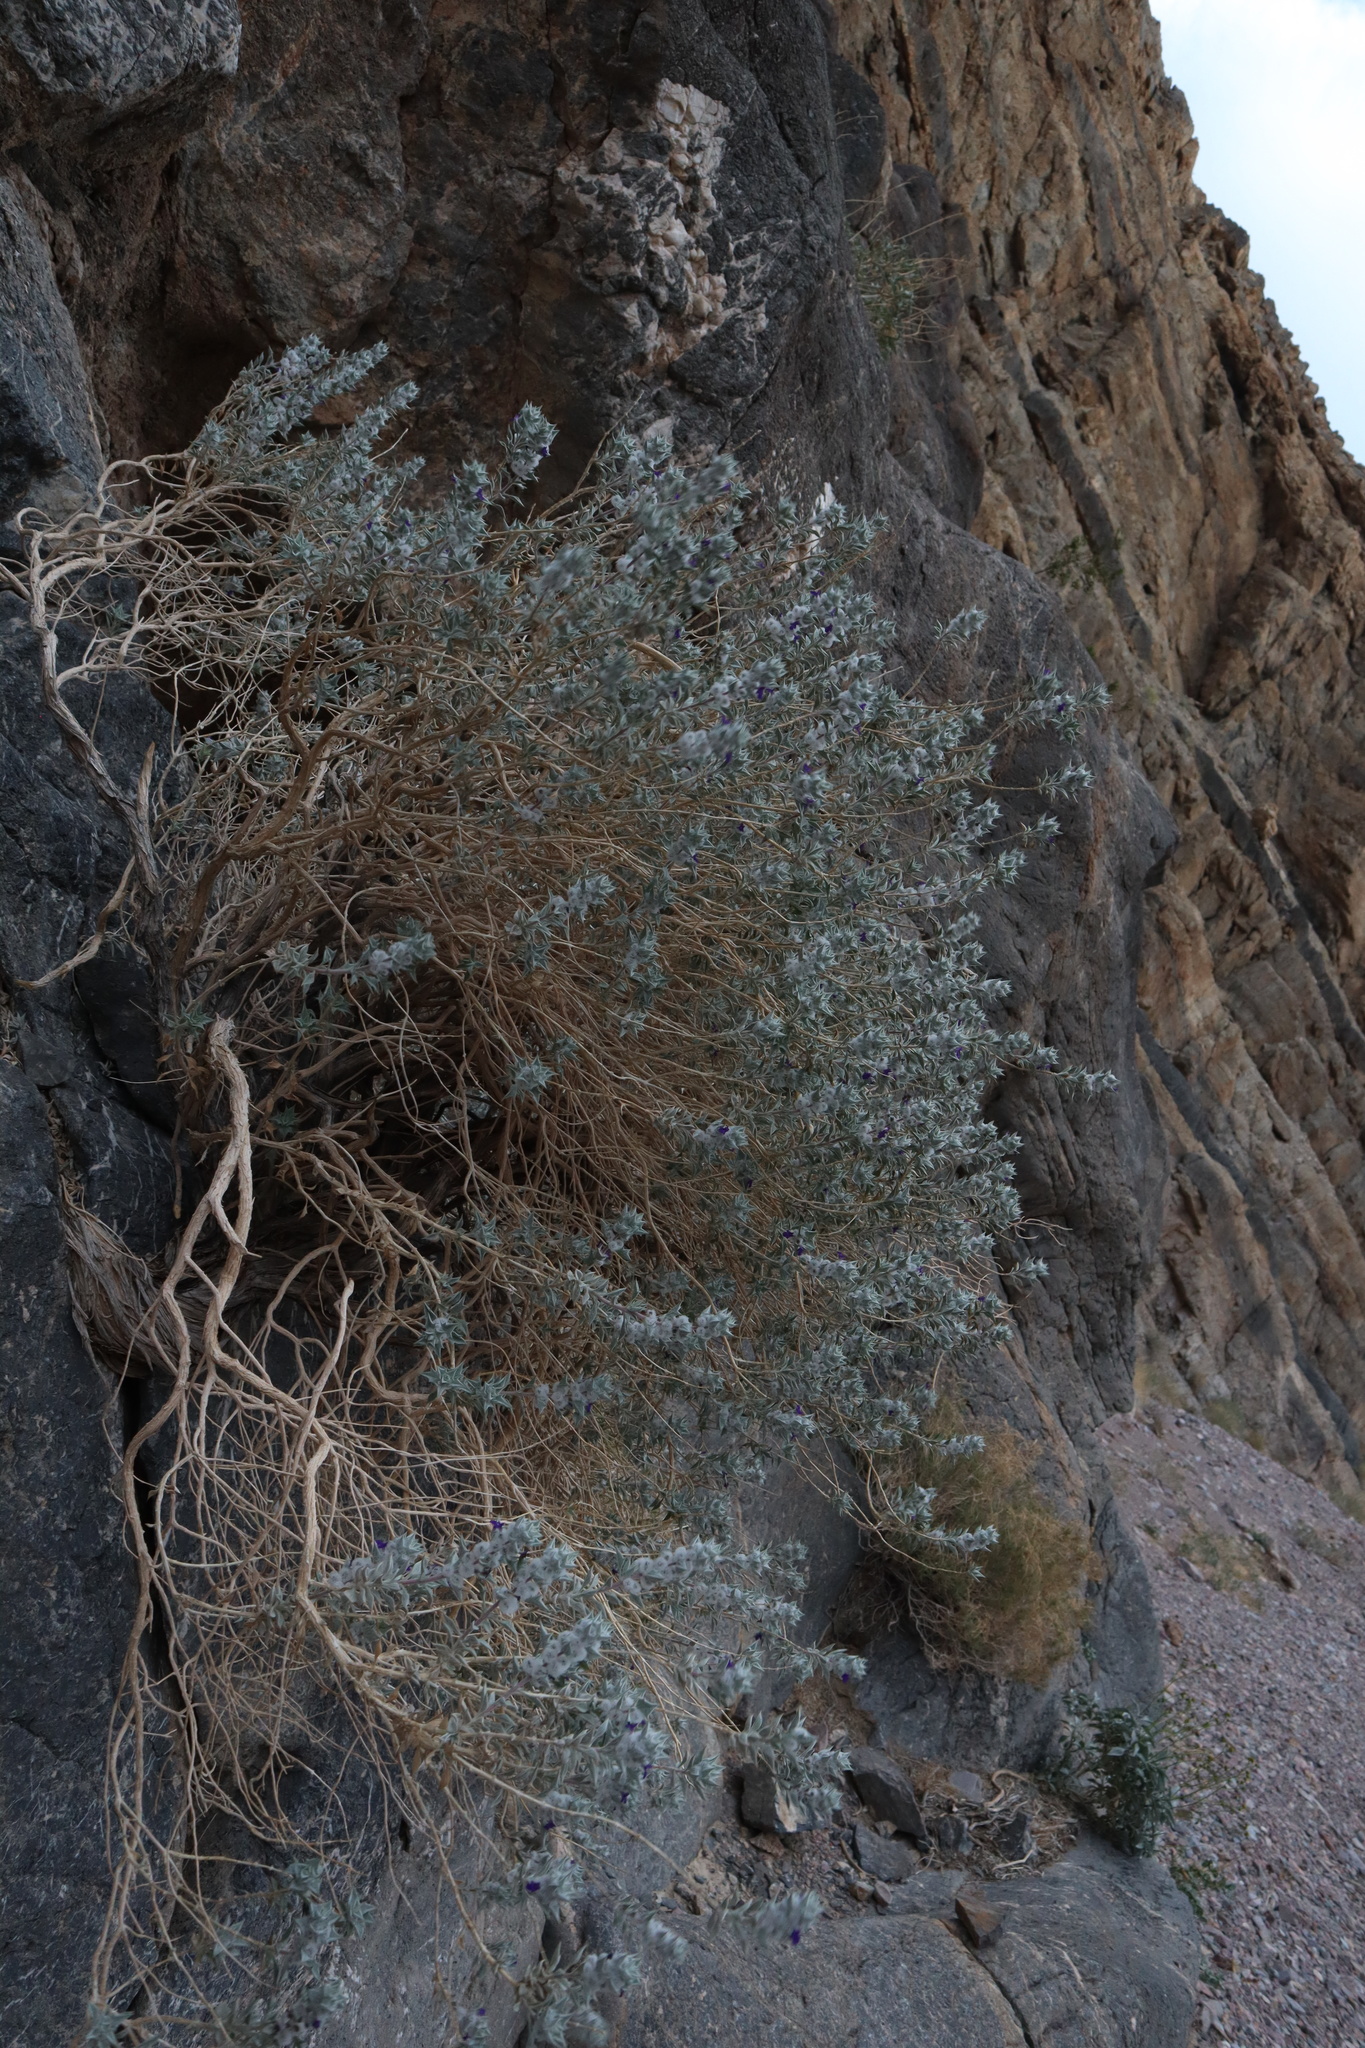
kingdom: Plantae
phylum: Tracheophyta
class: Magnoliopsida
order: Lamiales
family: Lamiaceae
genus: Salvia
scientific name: Salvia funerea
